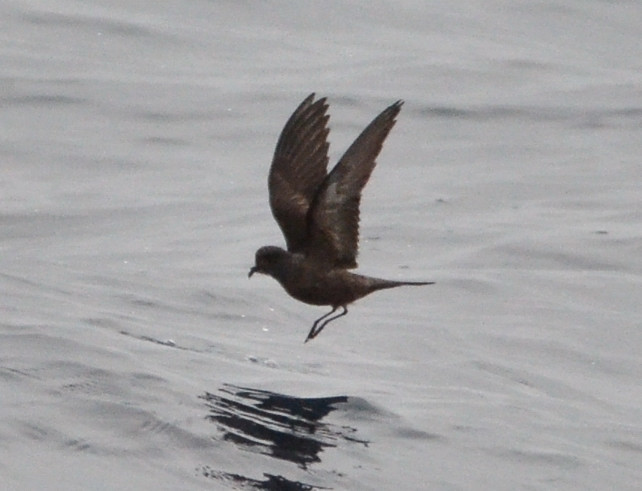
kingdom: Animalia
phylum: Chordata
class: Aves
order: Procellariiformes
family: Hydrobatidae
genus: Hydrobates
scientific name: Hydrobates homochroa
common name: Ashy storm petrel
